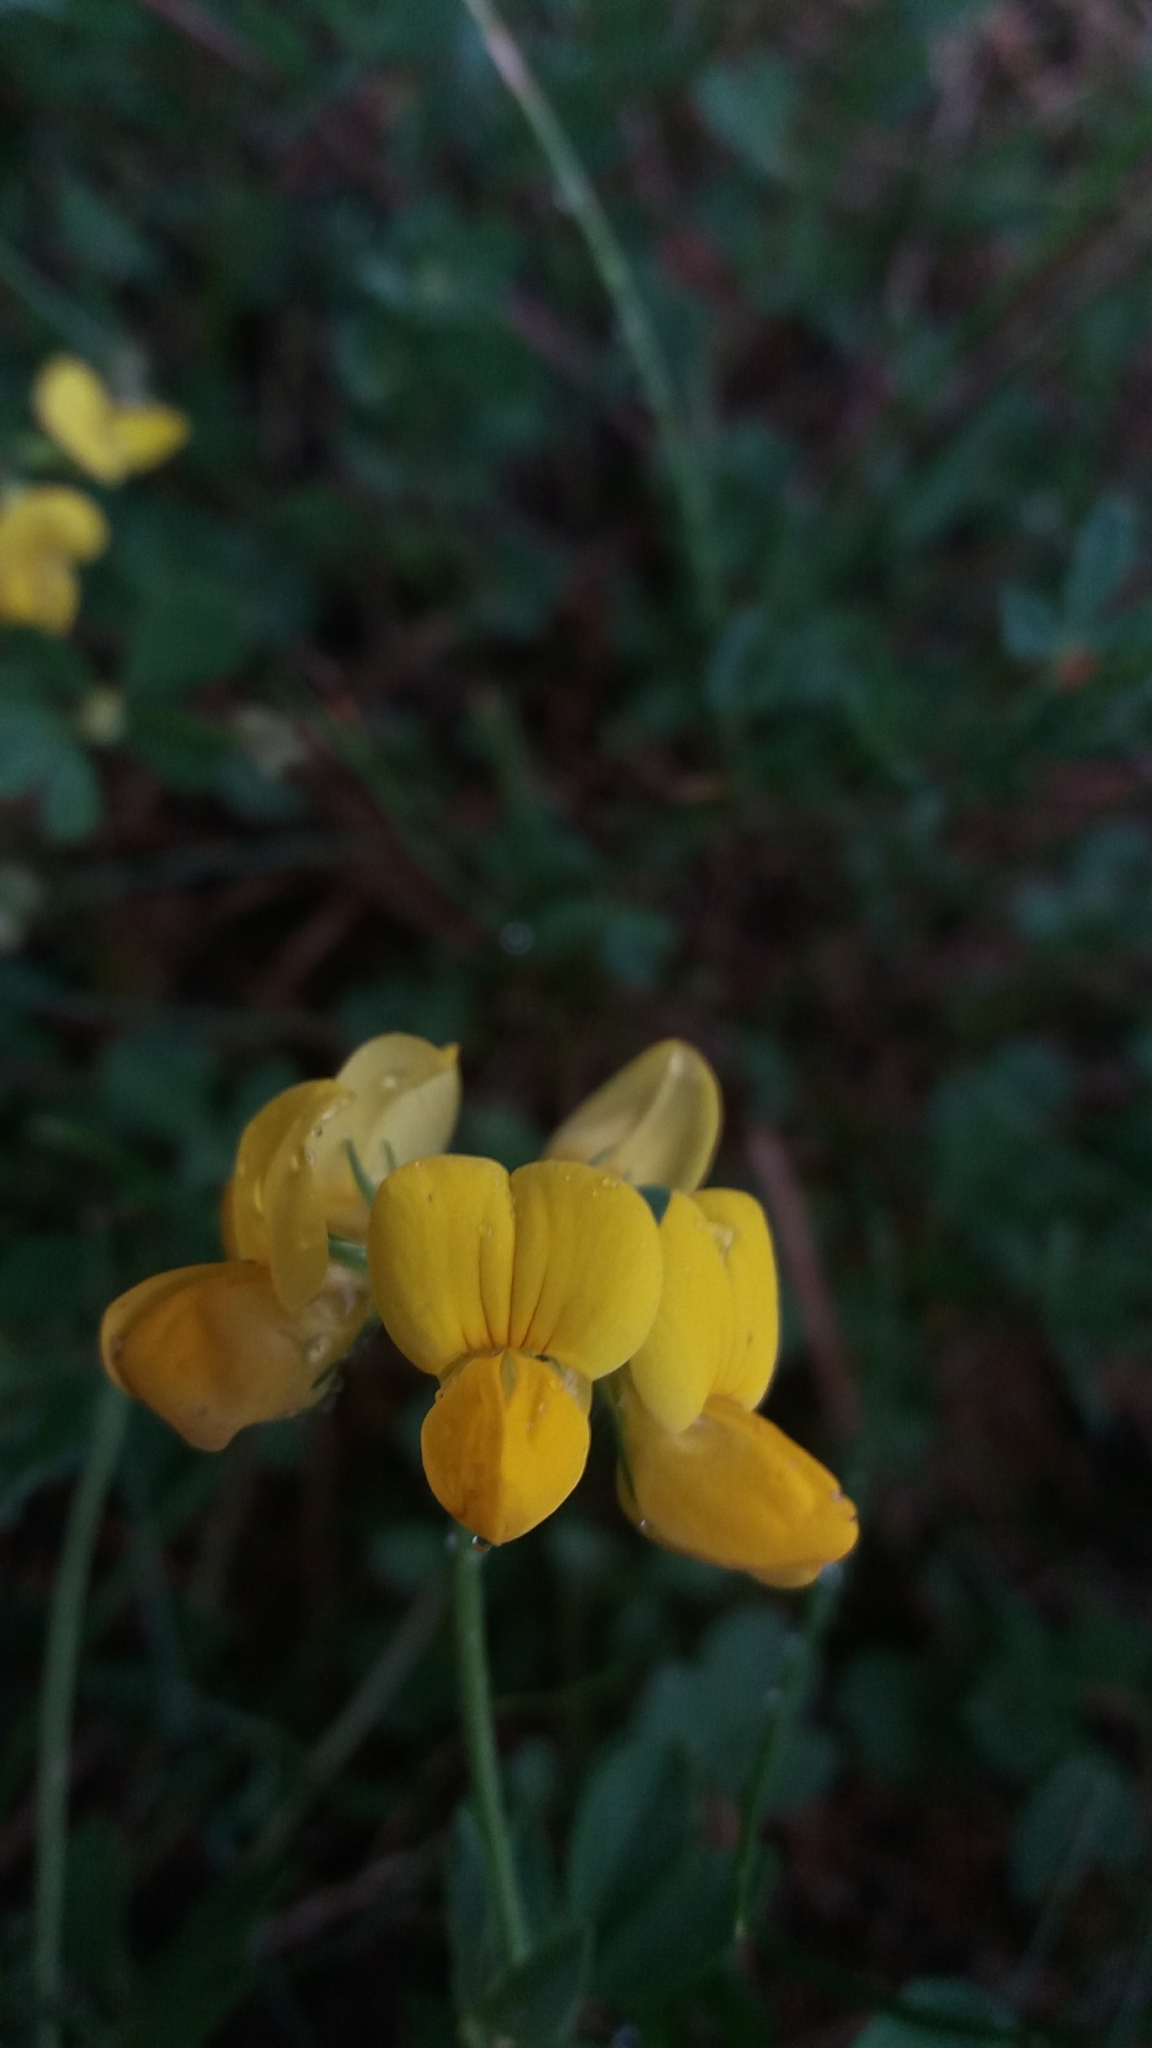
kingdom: Plantae
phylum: Tracheophyta
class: Magnoliopsida
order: Fabales
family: Fabaceae
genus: Lotus
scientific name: Lotus corniculatus
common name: Common bird's-foot-trefoil
